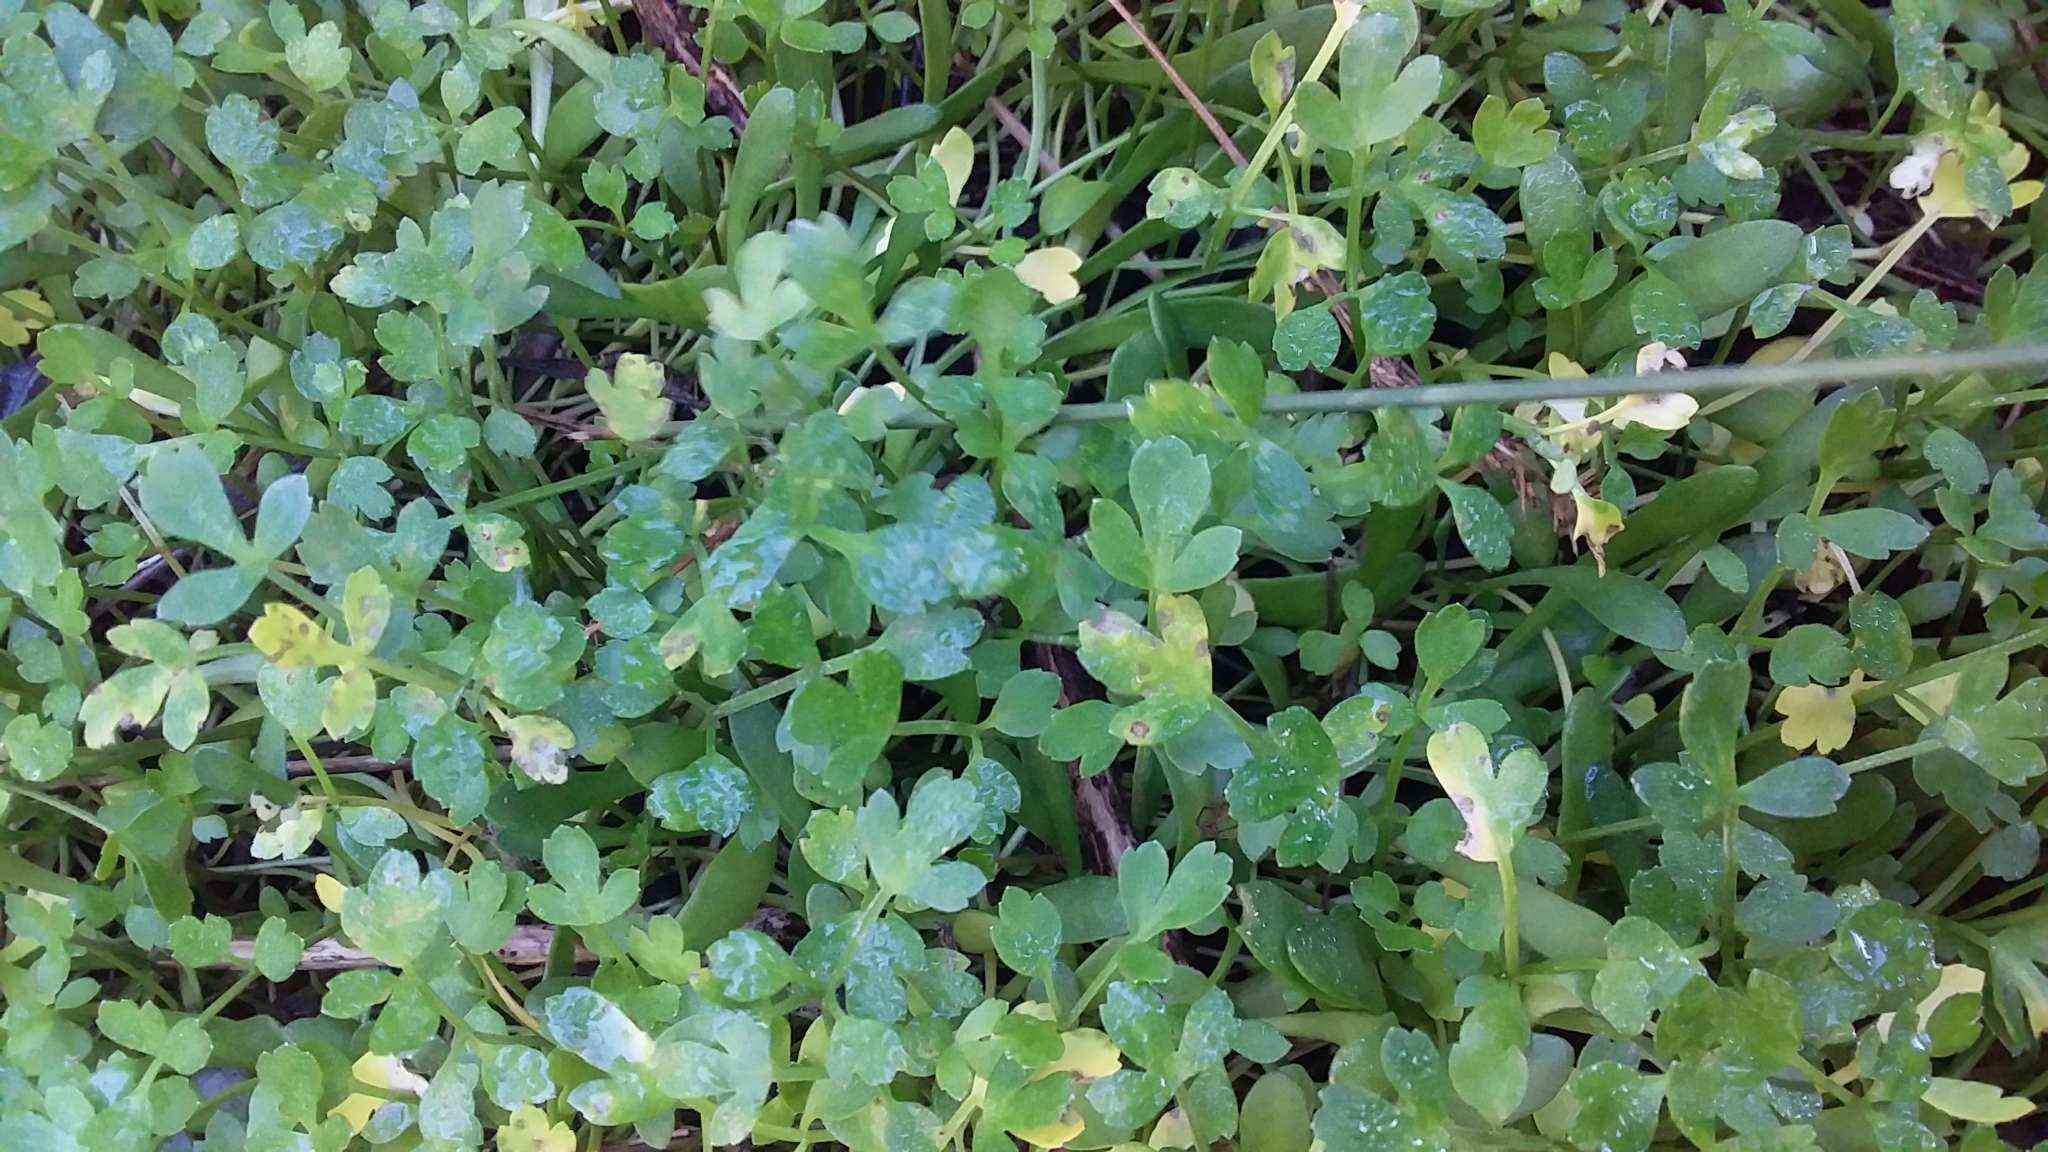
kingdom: Plantae
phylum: Tracheophyta
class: Magnoliopsida
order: Apiales
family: Apiaceae
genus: Apium
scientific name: Apium prostratum
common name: Prostrate marshwort
